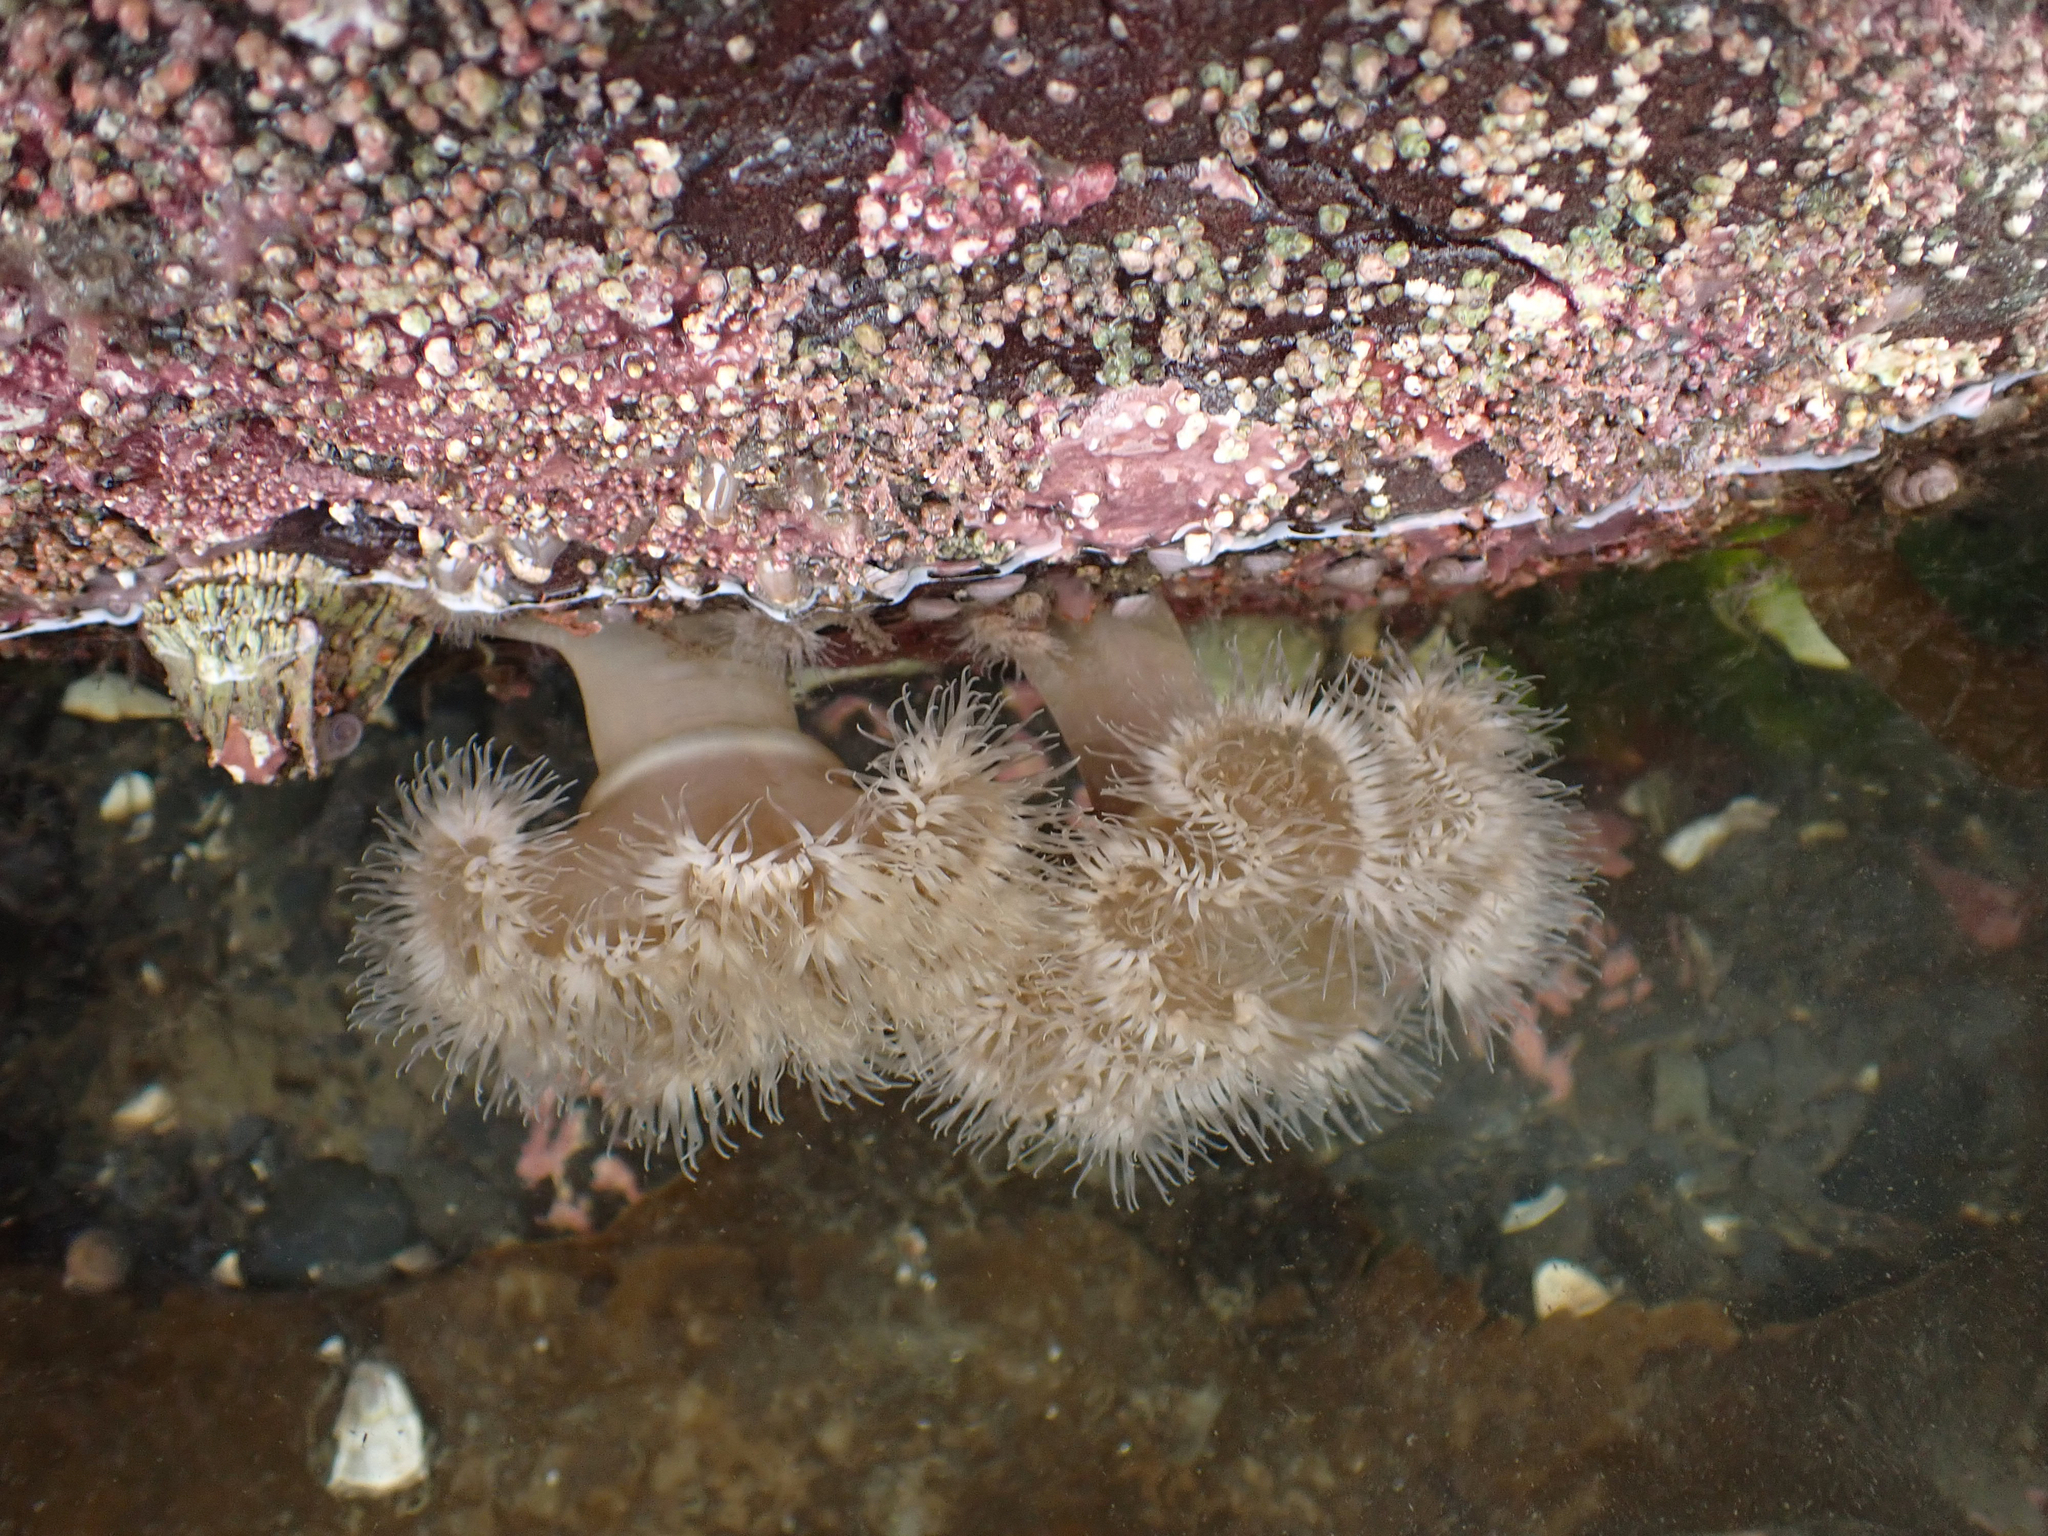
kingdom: Animalia
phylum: Cnidaria
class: Anthozoa
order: Actiniaria
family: Metridiidae
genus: Metridium
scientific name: Metridium senile
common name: Clonal plumose anemone
